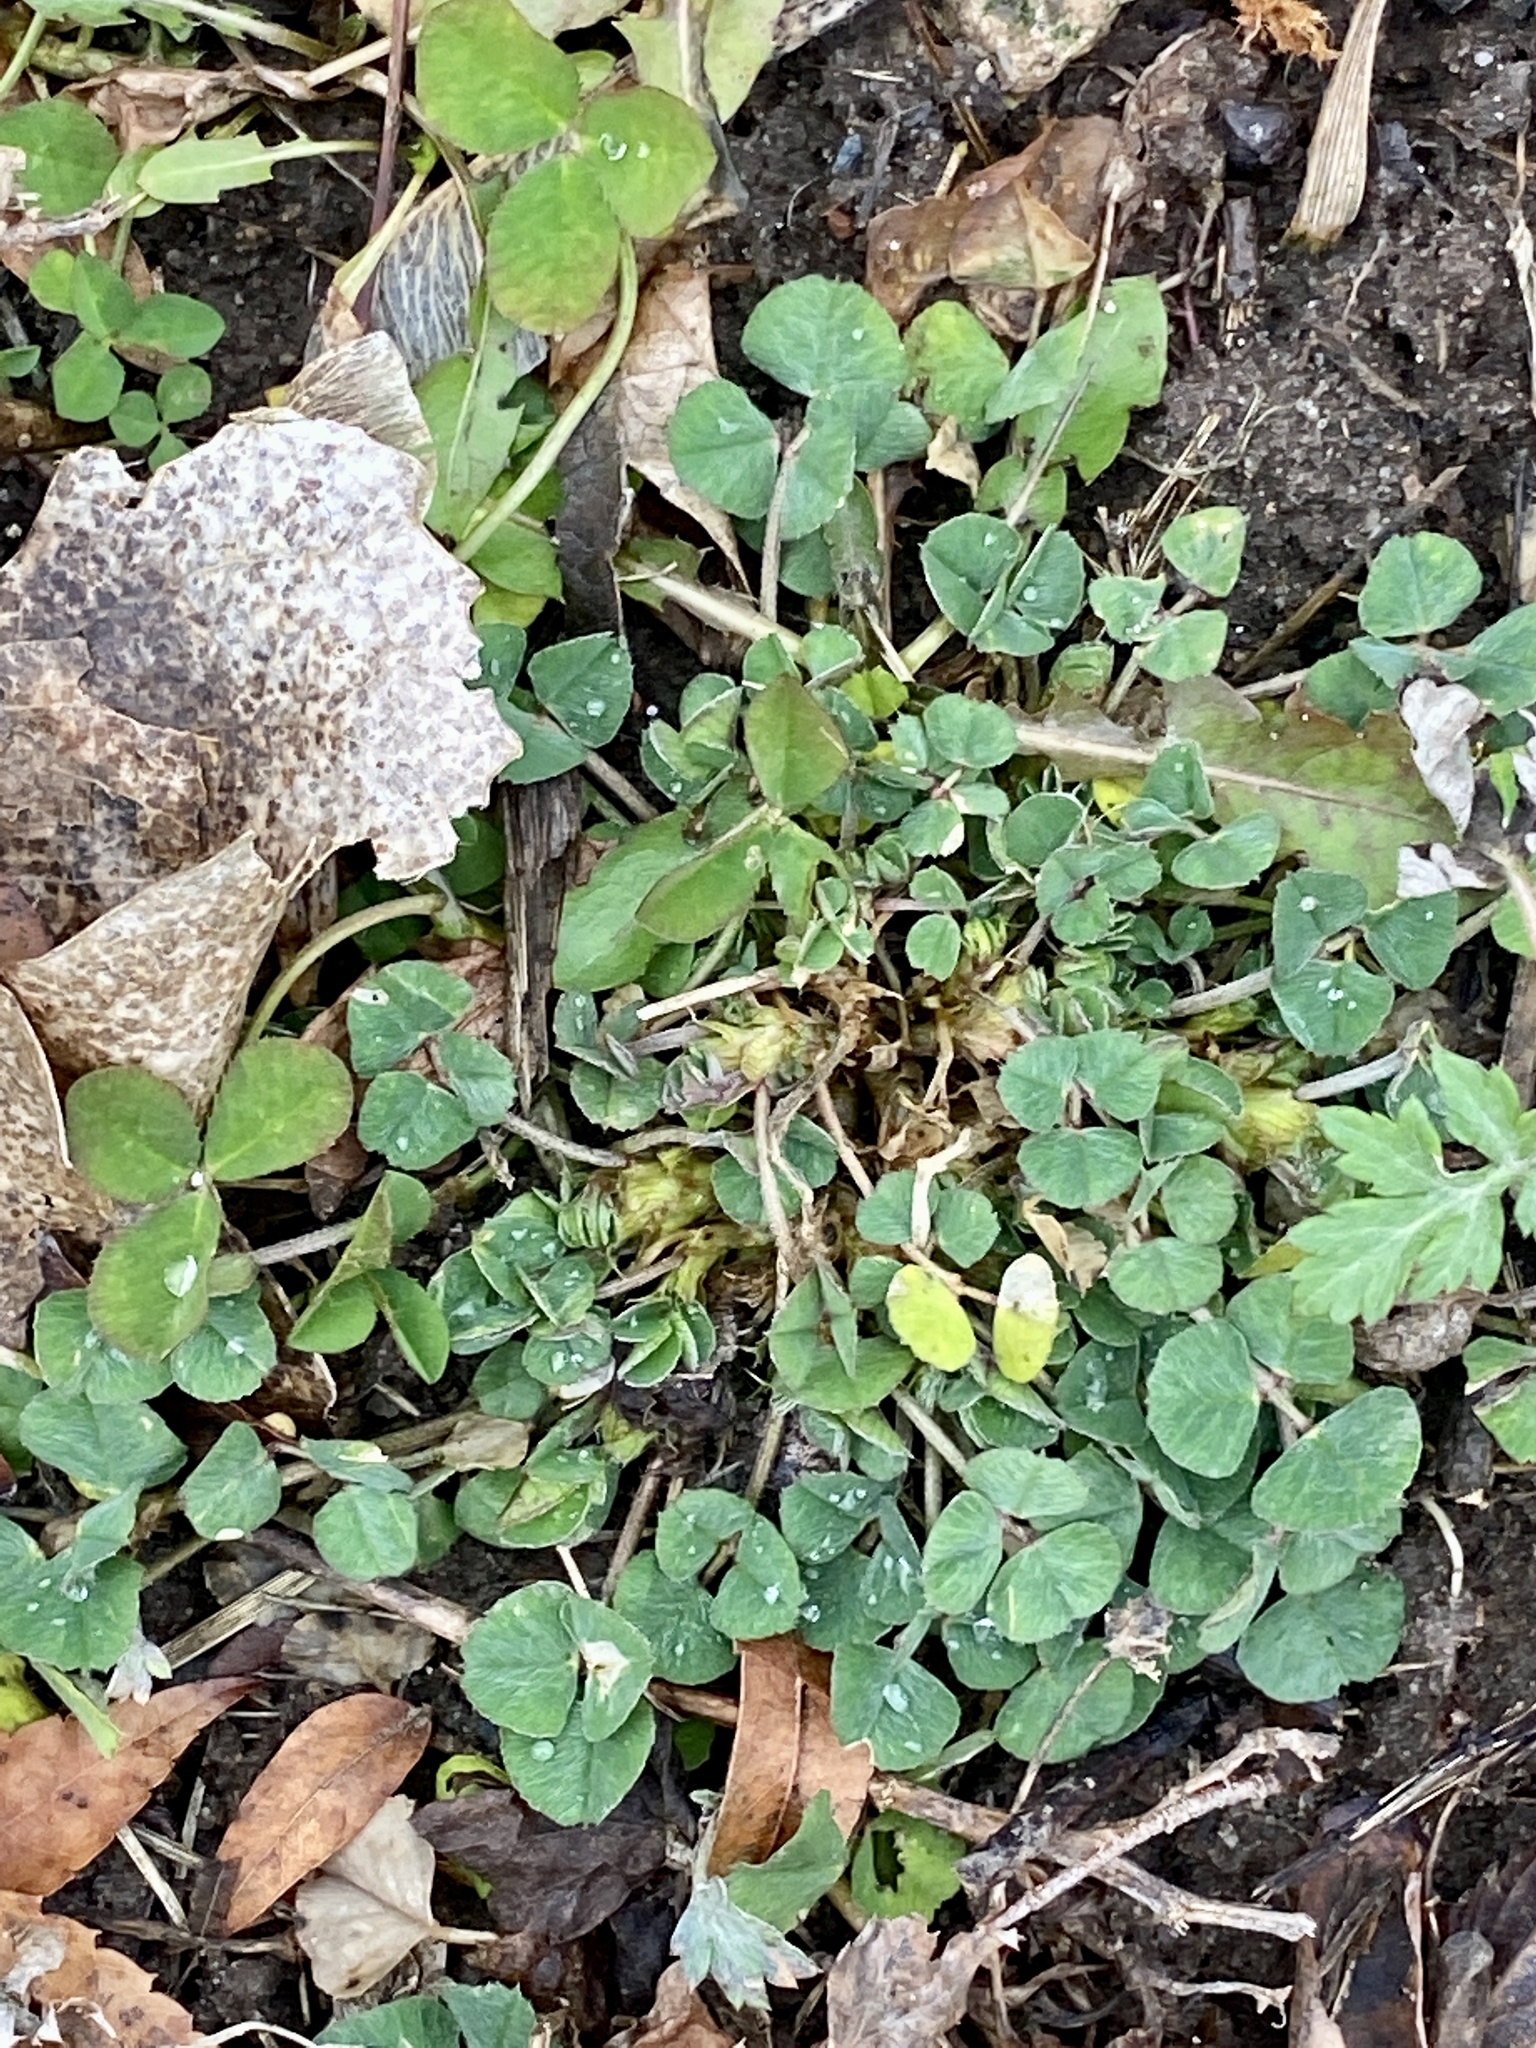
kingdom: Plantae
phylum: Tracheophyta
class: Magnoliopsida
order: Fabales
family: Fabaceae
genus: Medicago
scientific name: Medicago lupulina
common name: Black medick
